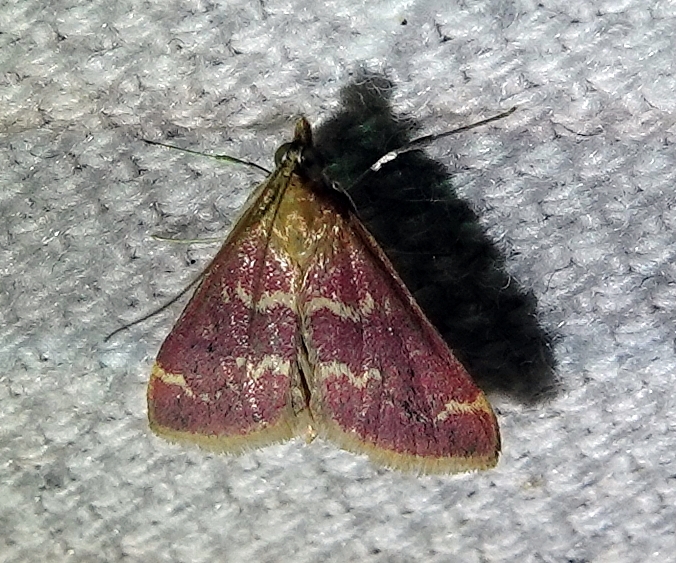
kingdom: Animalia
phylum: Arthropoda
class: Insecta
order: Lepidoptera
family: Crambidae
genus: Pyrausta
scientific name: Pyrausta signatalis
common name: Raspberry pyrausta moth
